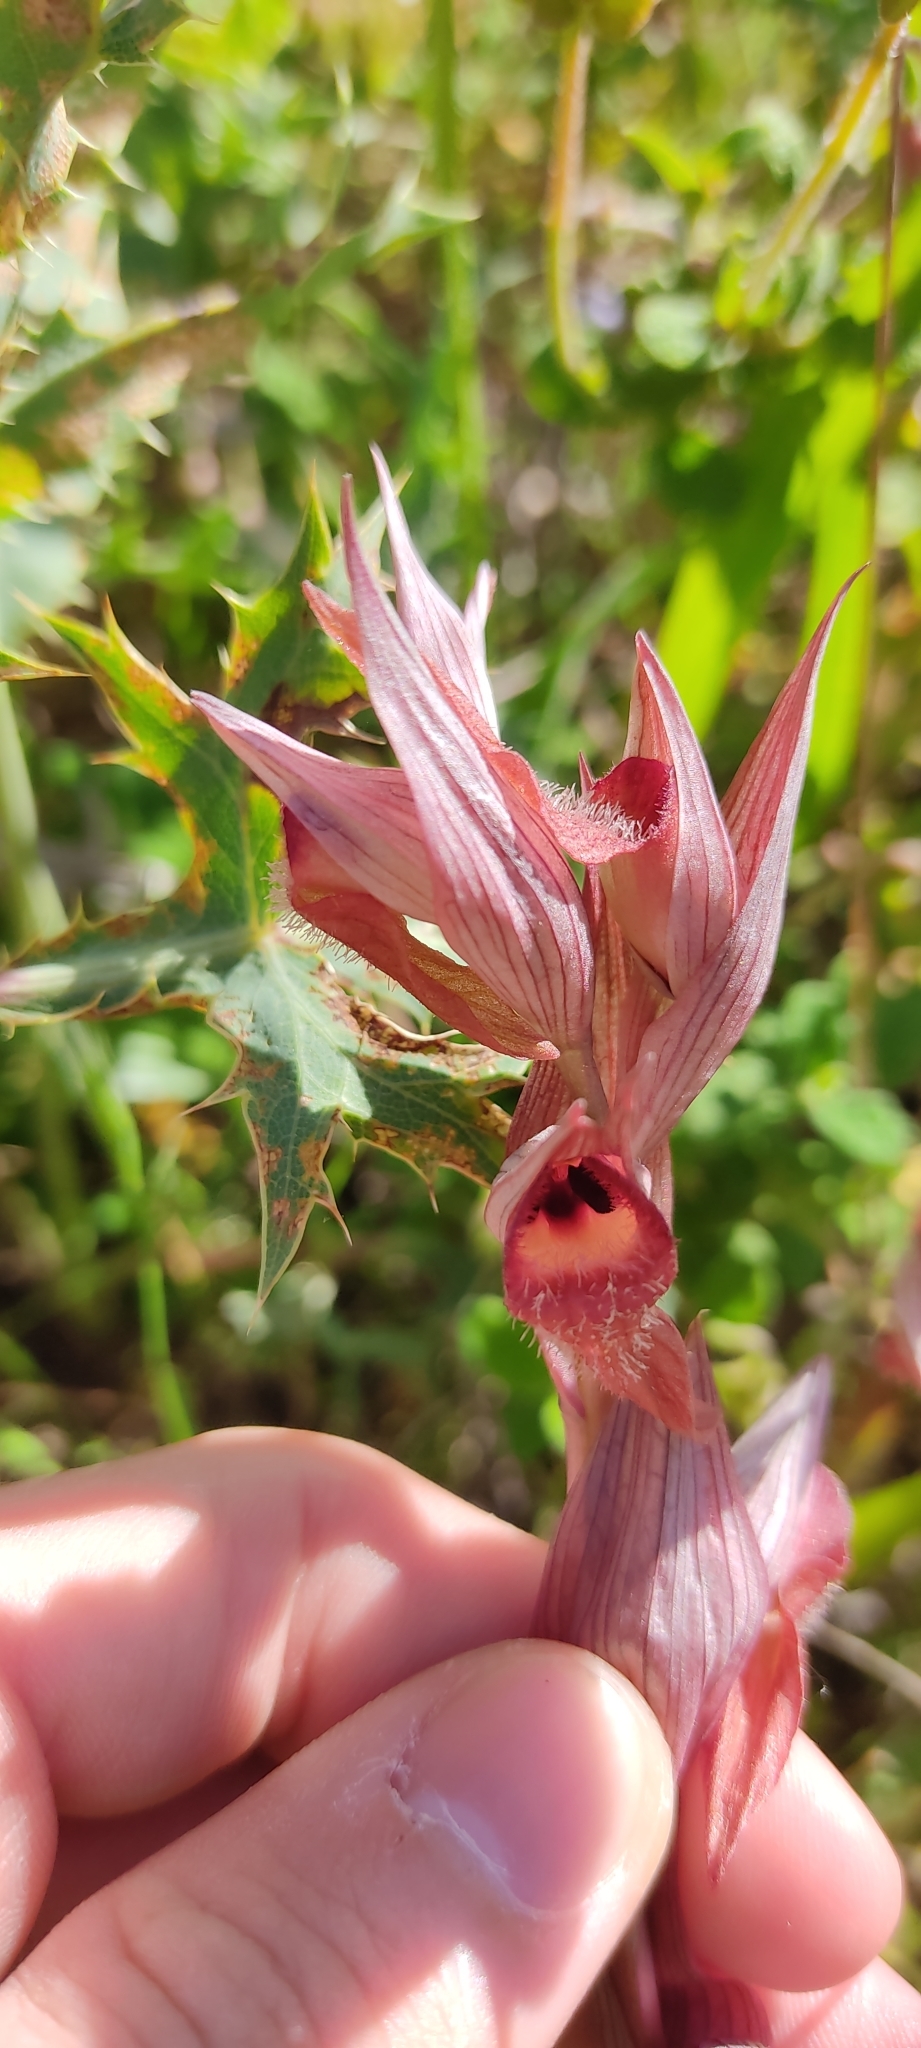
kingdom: Plantae
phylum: Tracheophyta
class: Liliopsida
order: Asparagales
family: Orchidaceae
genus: Serapias
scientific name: Serapias vomeracea
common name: Long-lipped tongue-orchid
